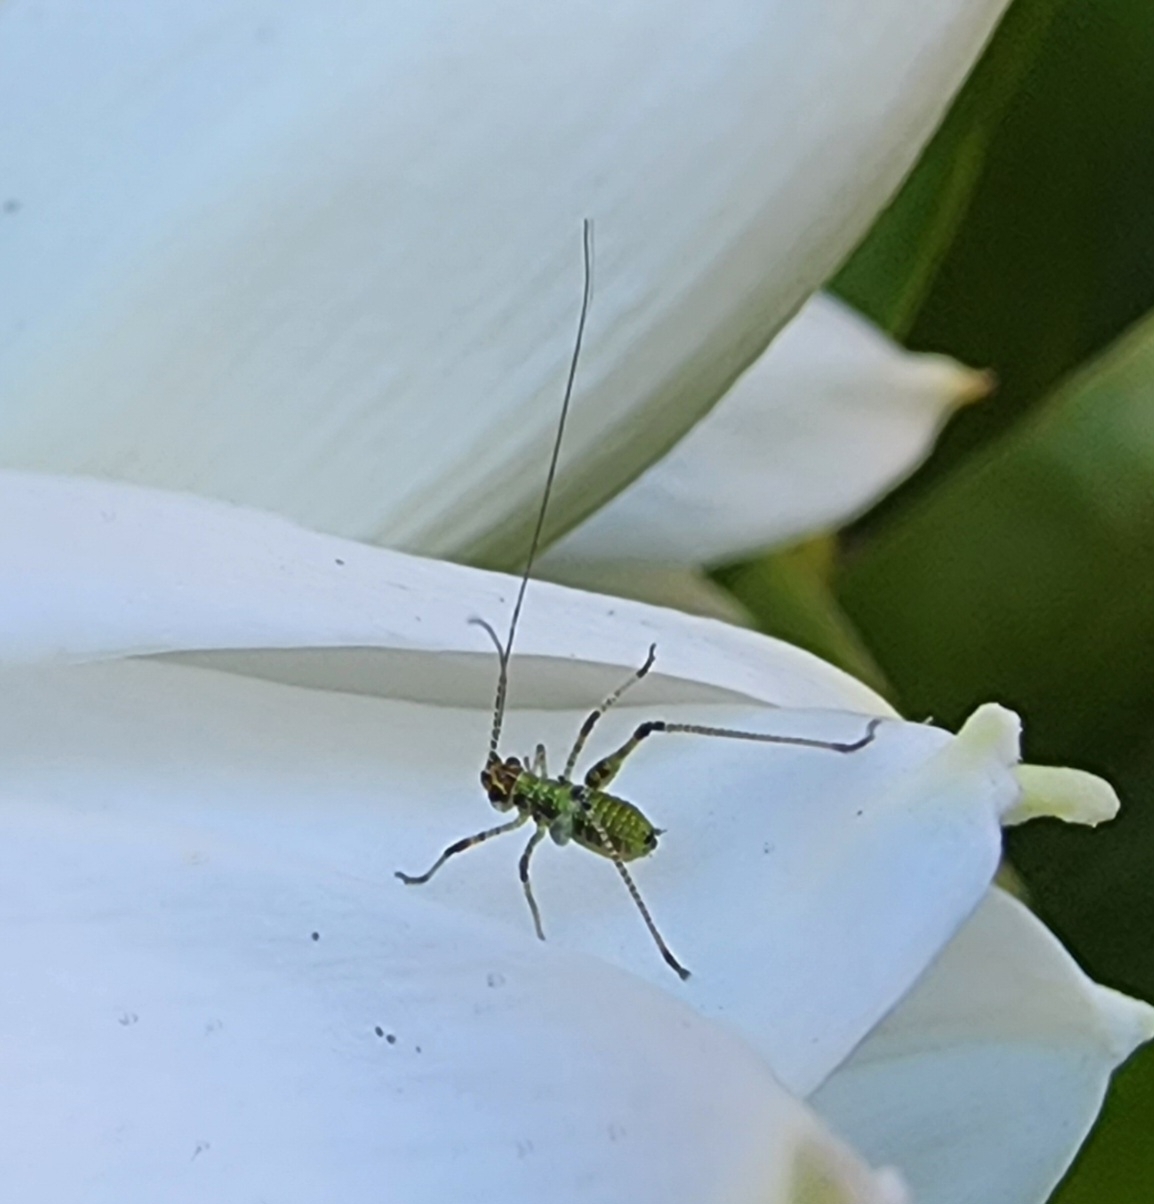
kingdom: Animalia
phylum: Arthropoda
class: Insecta
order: Orthoptera
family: Tettigoniidae
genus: Phaneroptera
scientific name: Phaneroptera nana
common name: Southern sickle bush-cricket
